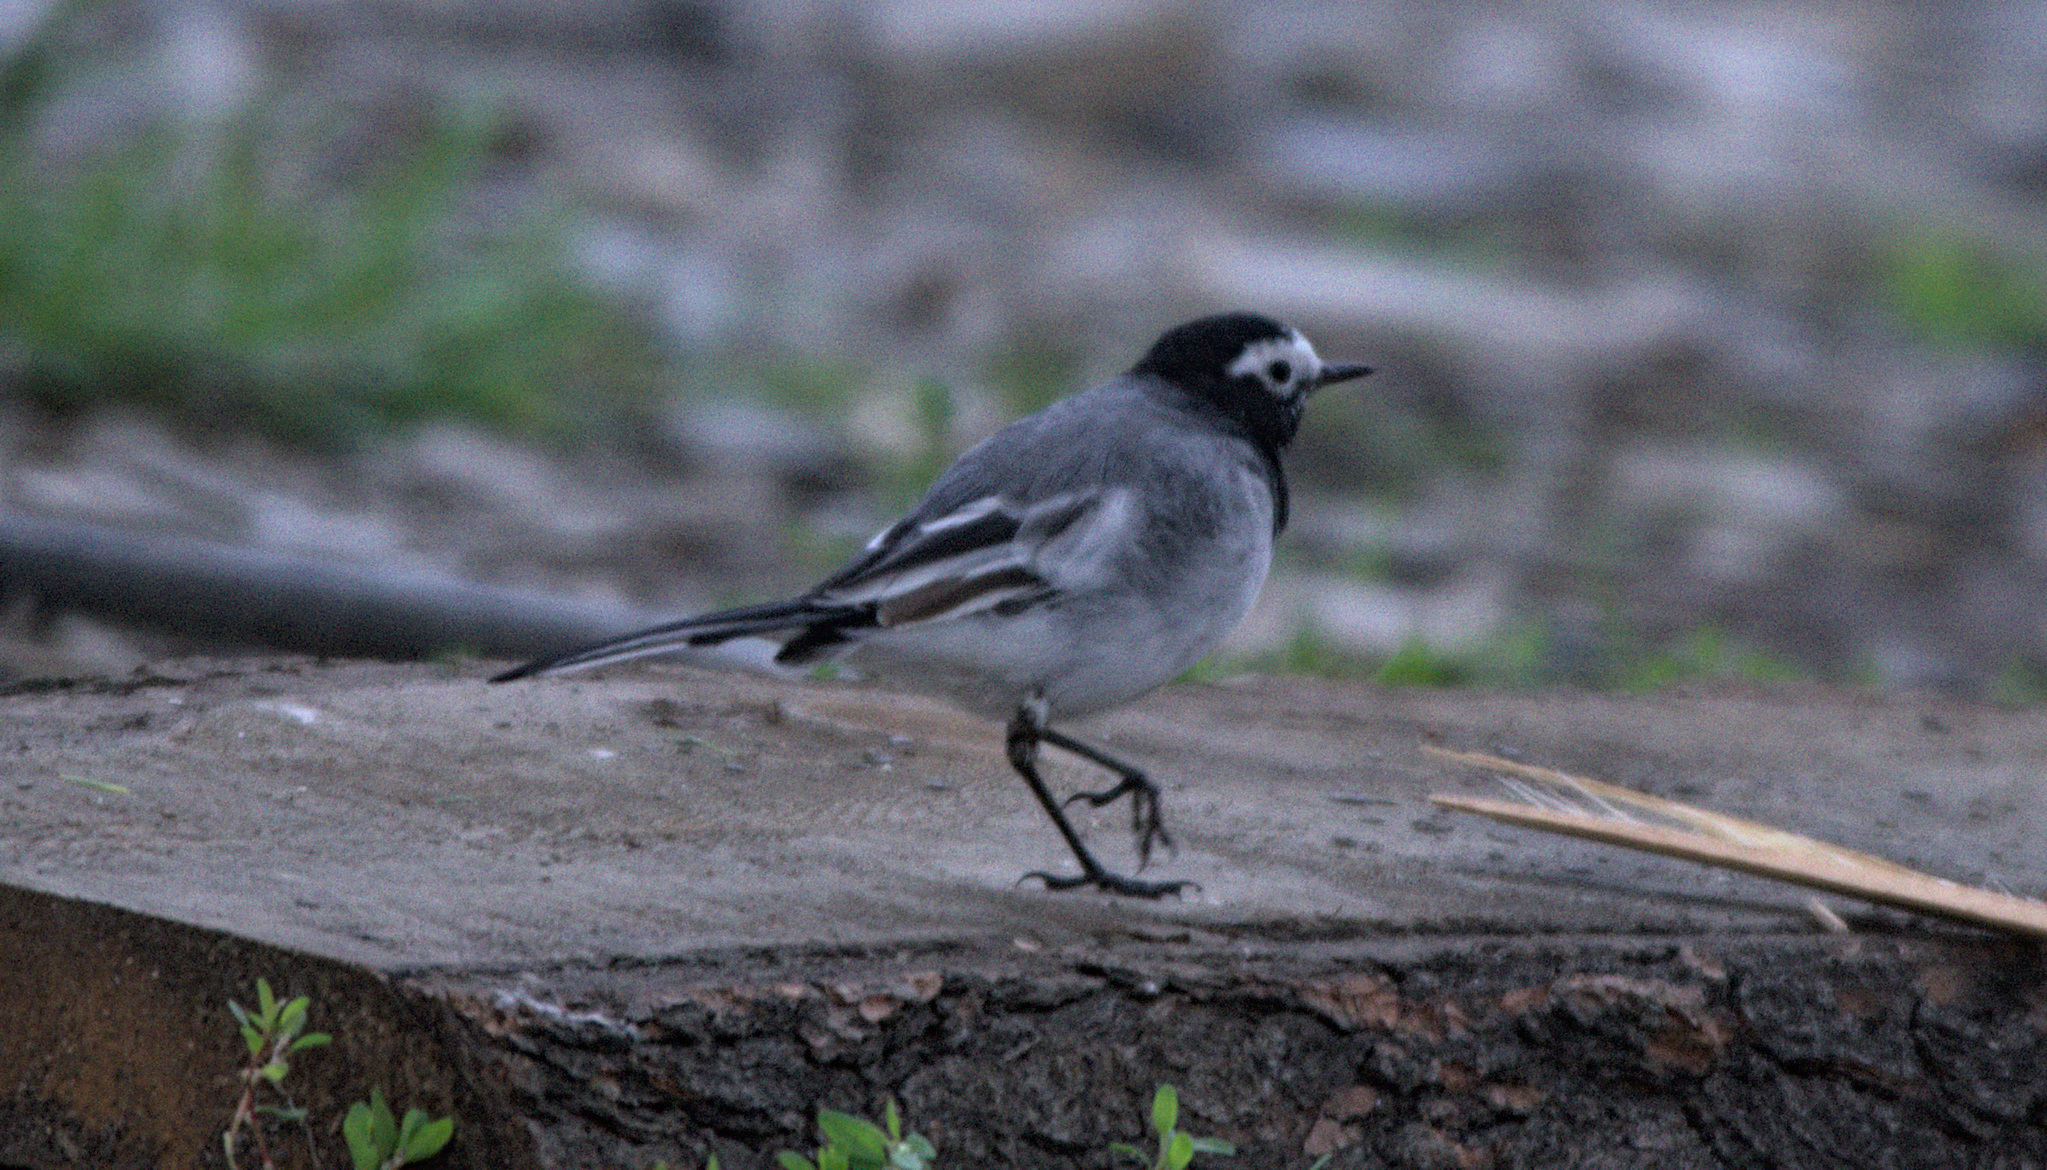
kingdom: Animalia
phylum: Chordata
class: Aves
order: Passeriformes
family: Motacillidae
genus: Motacilla
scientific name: Motacilla alba
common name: White wagtail
